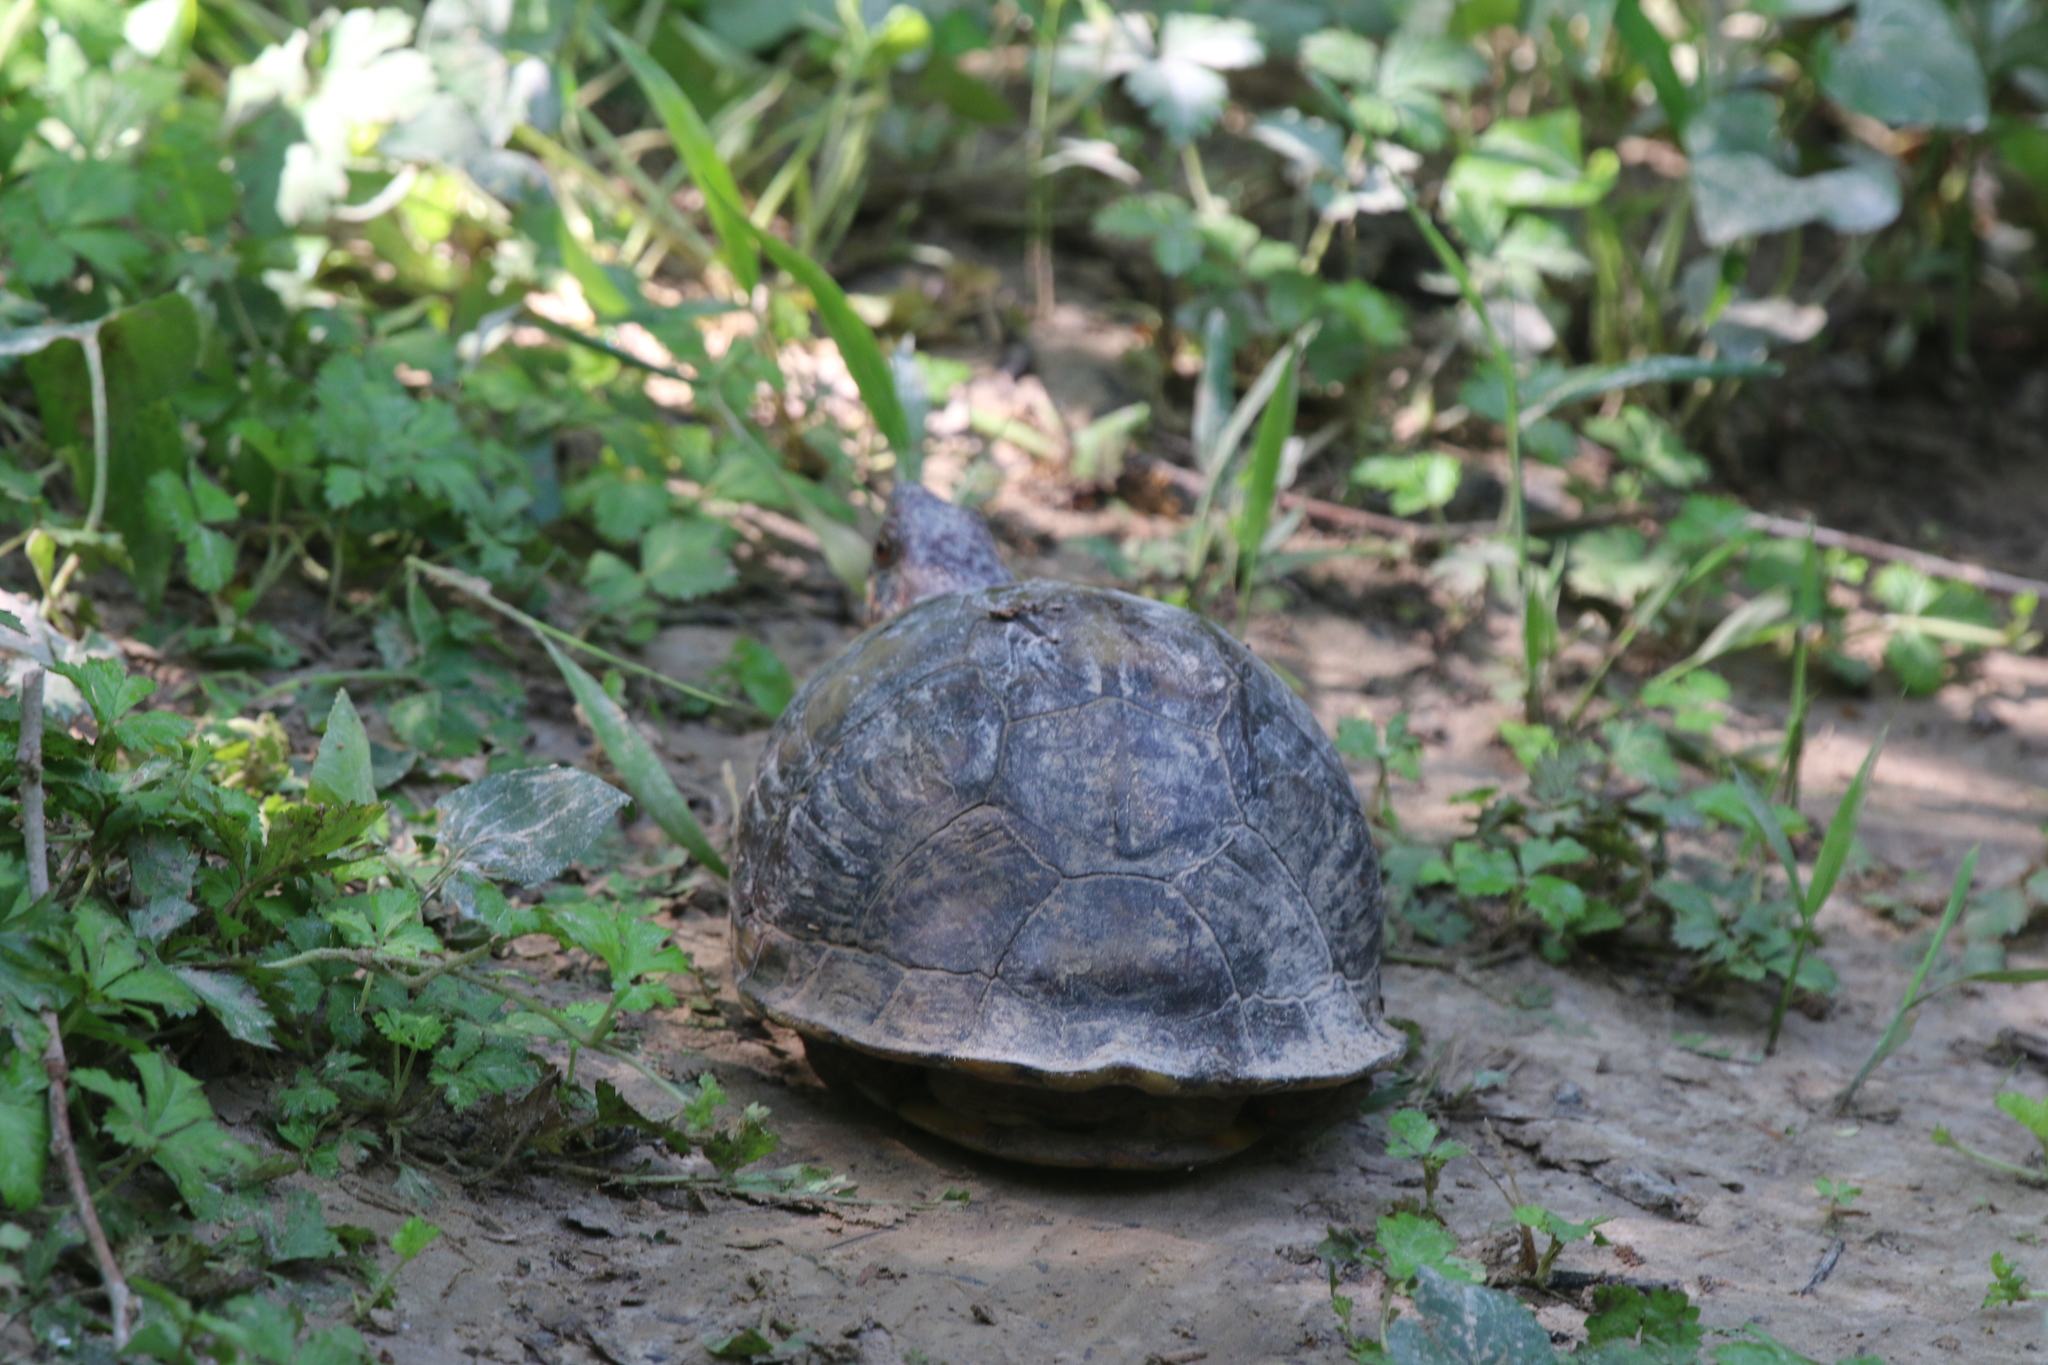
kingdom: Animalia
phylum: Chordata
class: Testudines
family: Emydidae
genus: Terrapene
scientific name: Terrapene carolina
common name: Common box turtle
